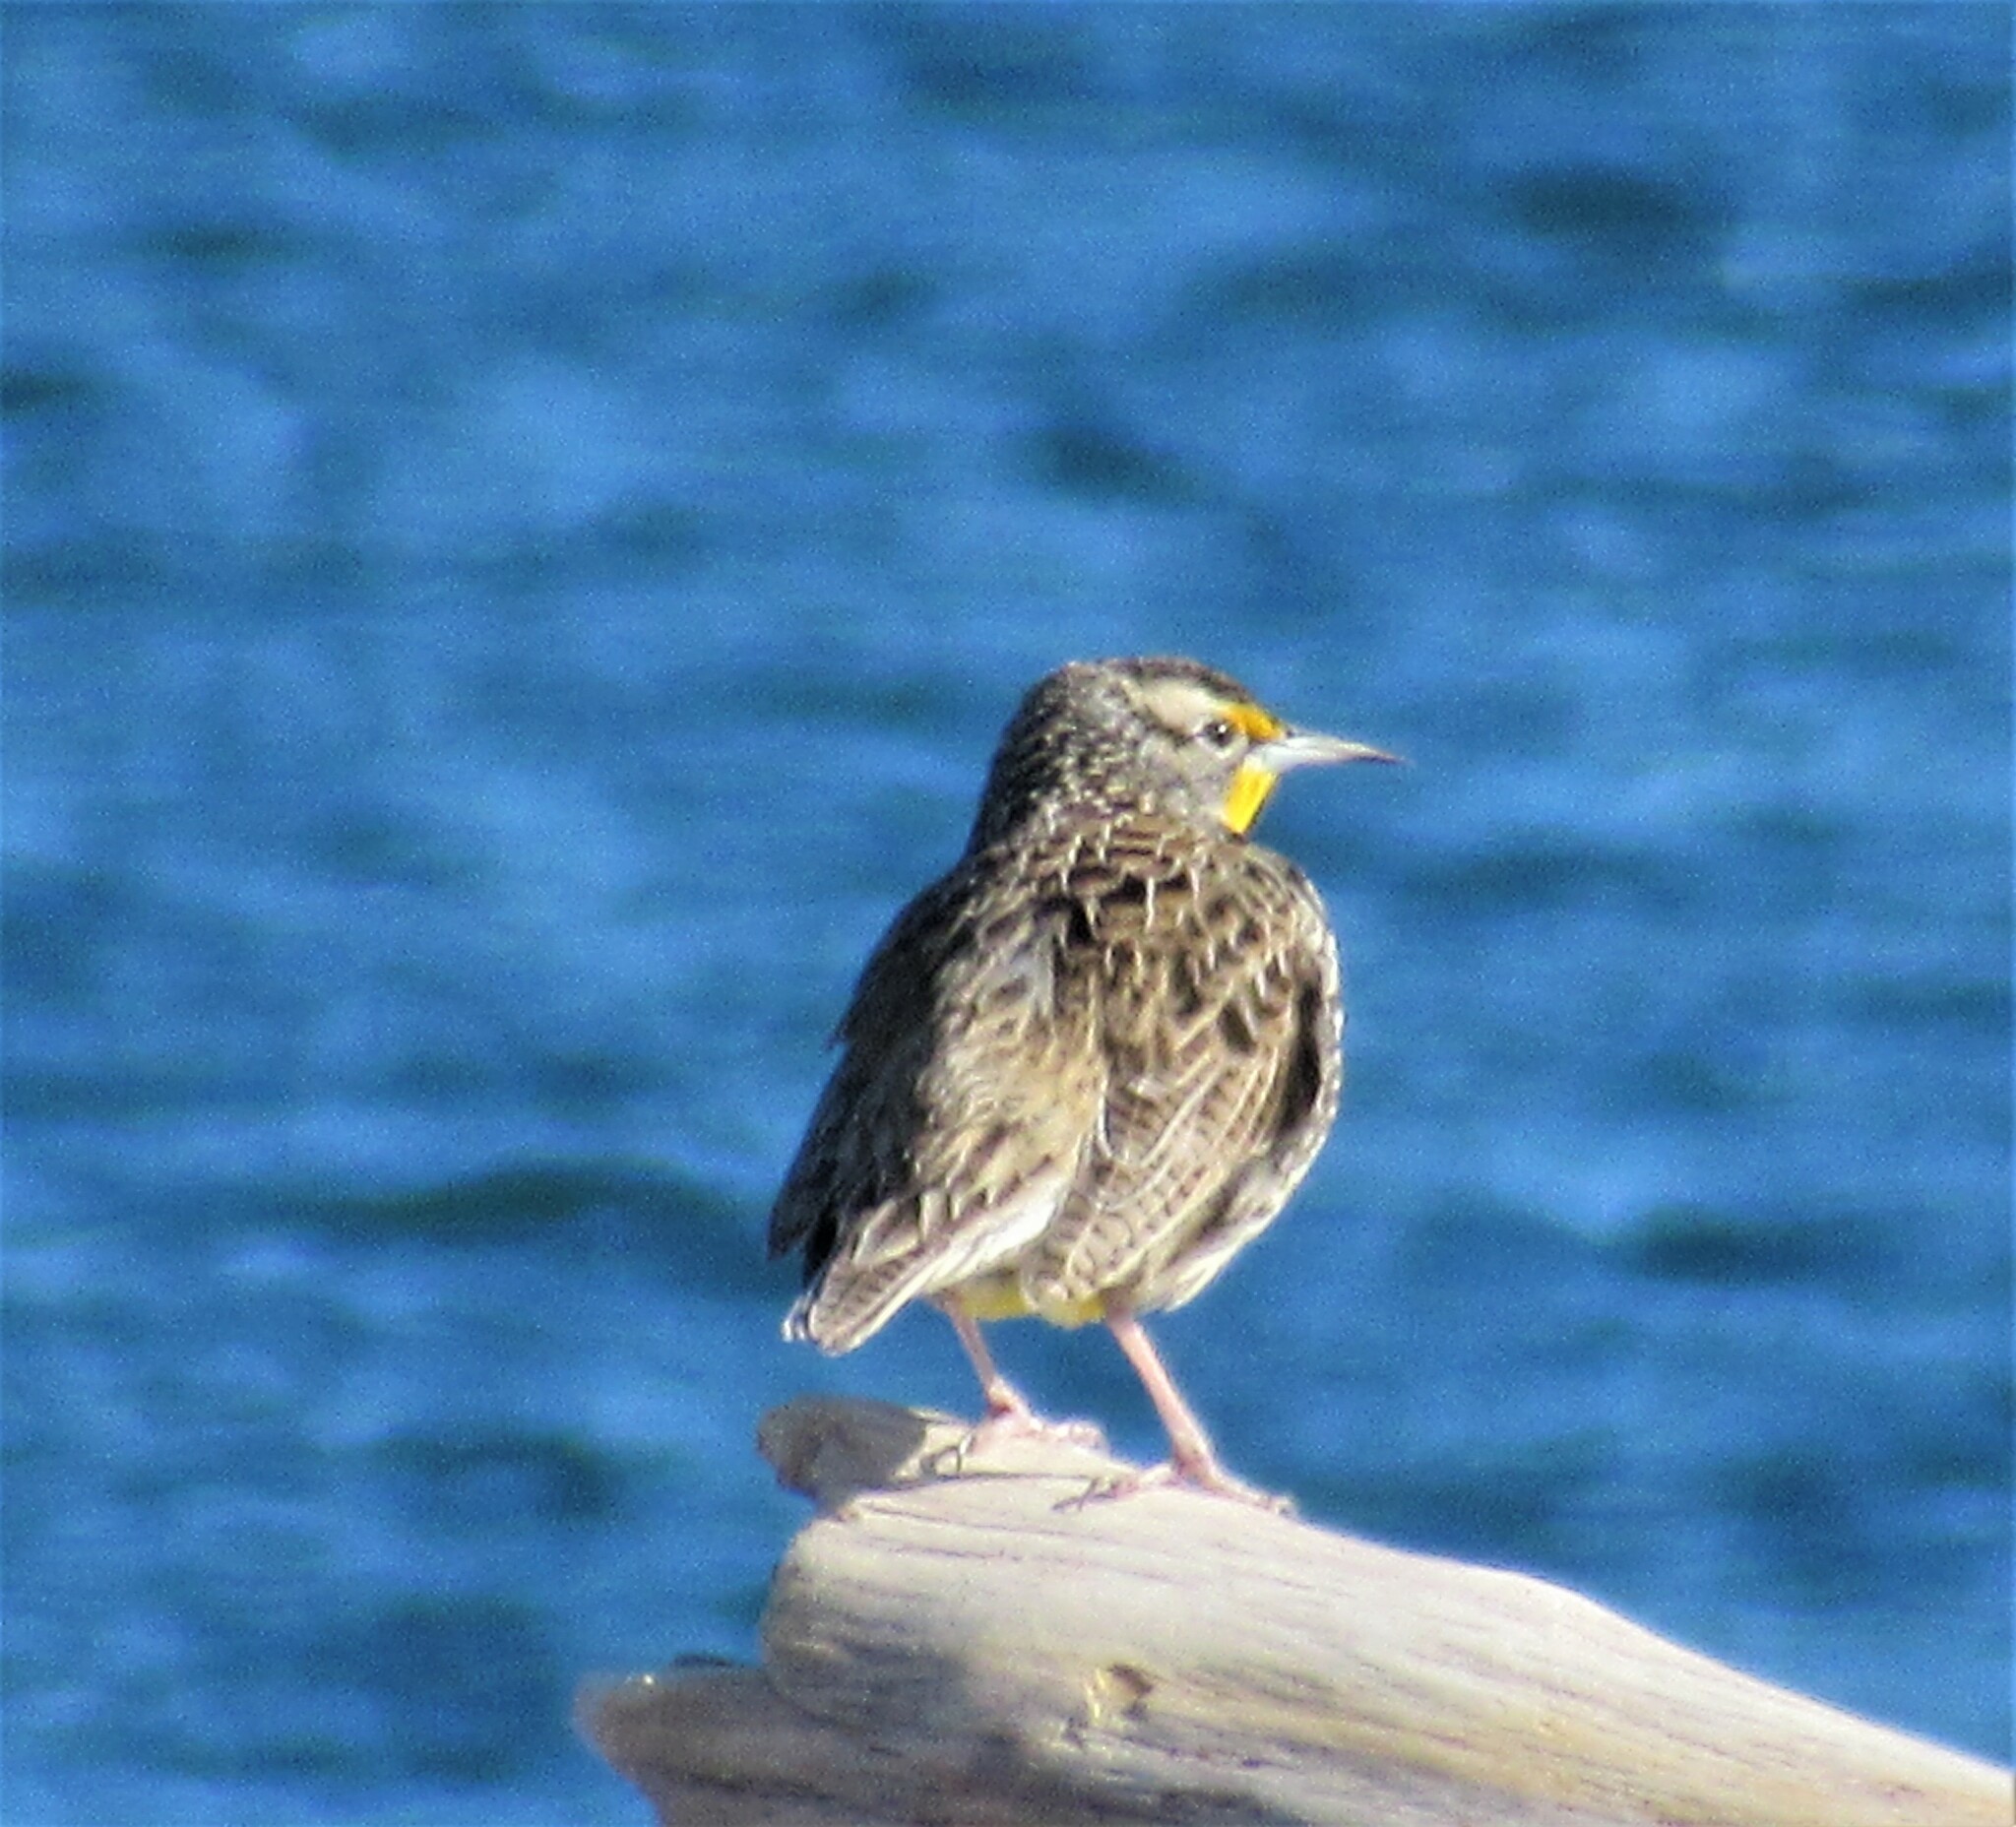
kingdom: Animalia
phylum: Chordata
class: Aves
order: Passeriformes
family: Icteridae
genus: Sturnella
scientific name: Sturnella neglecta
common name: Western meadowlark
